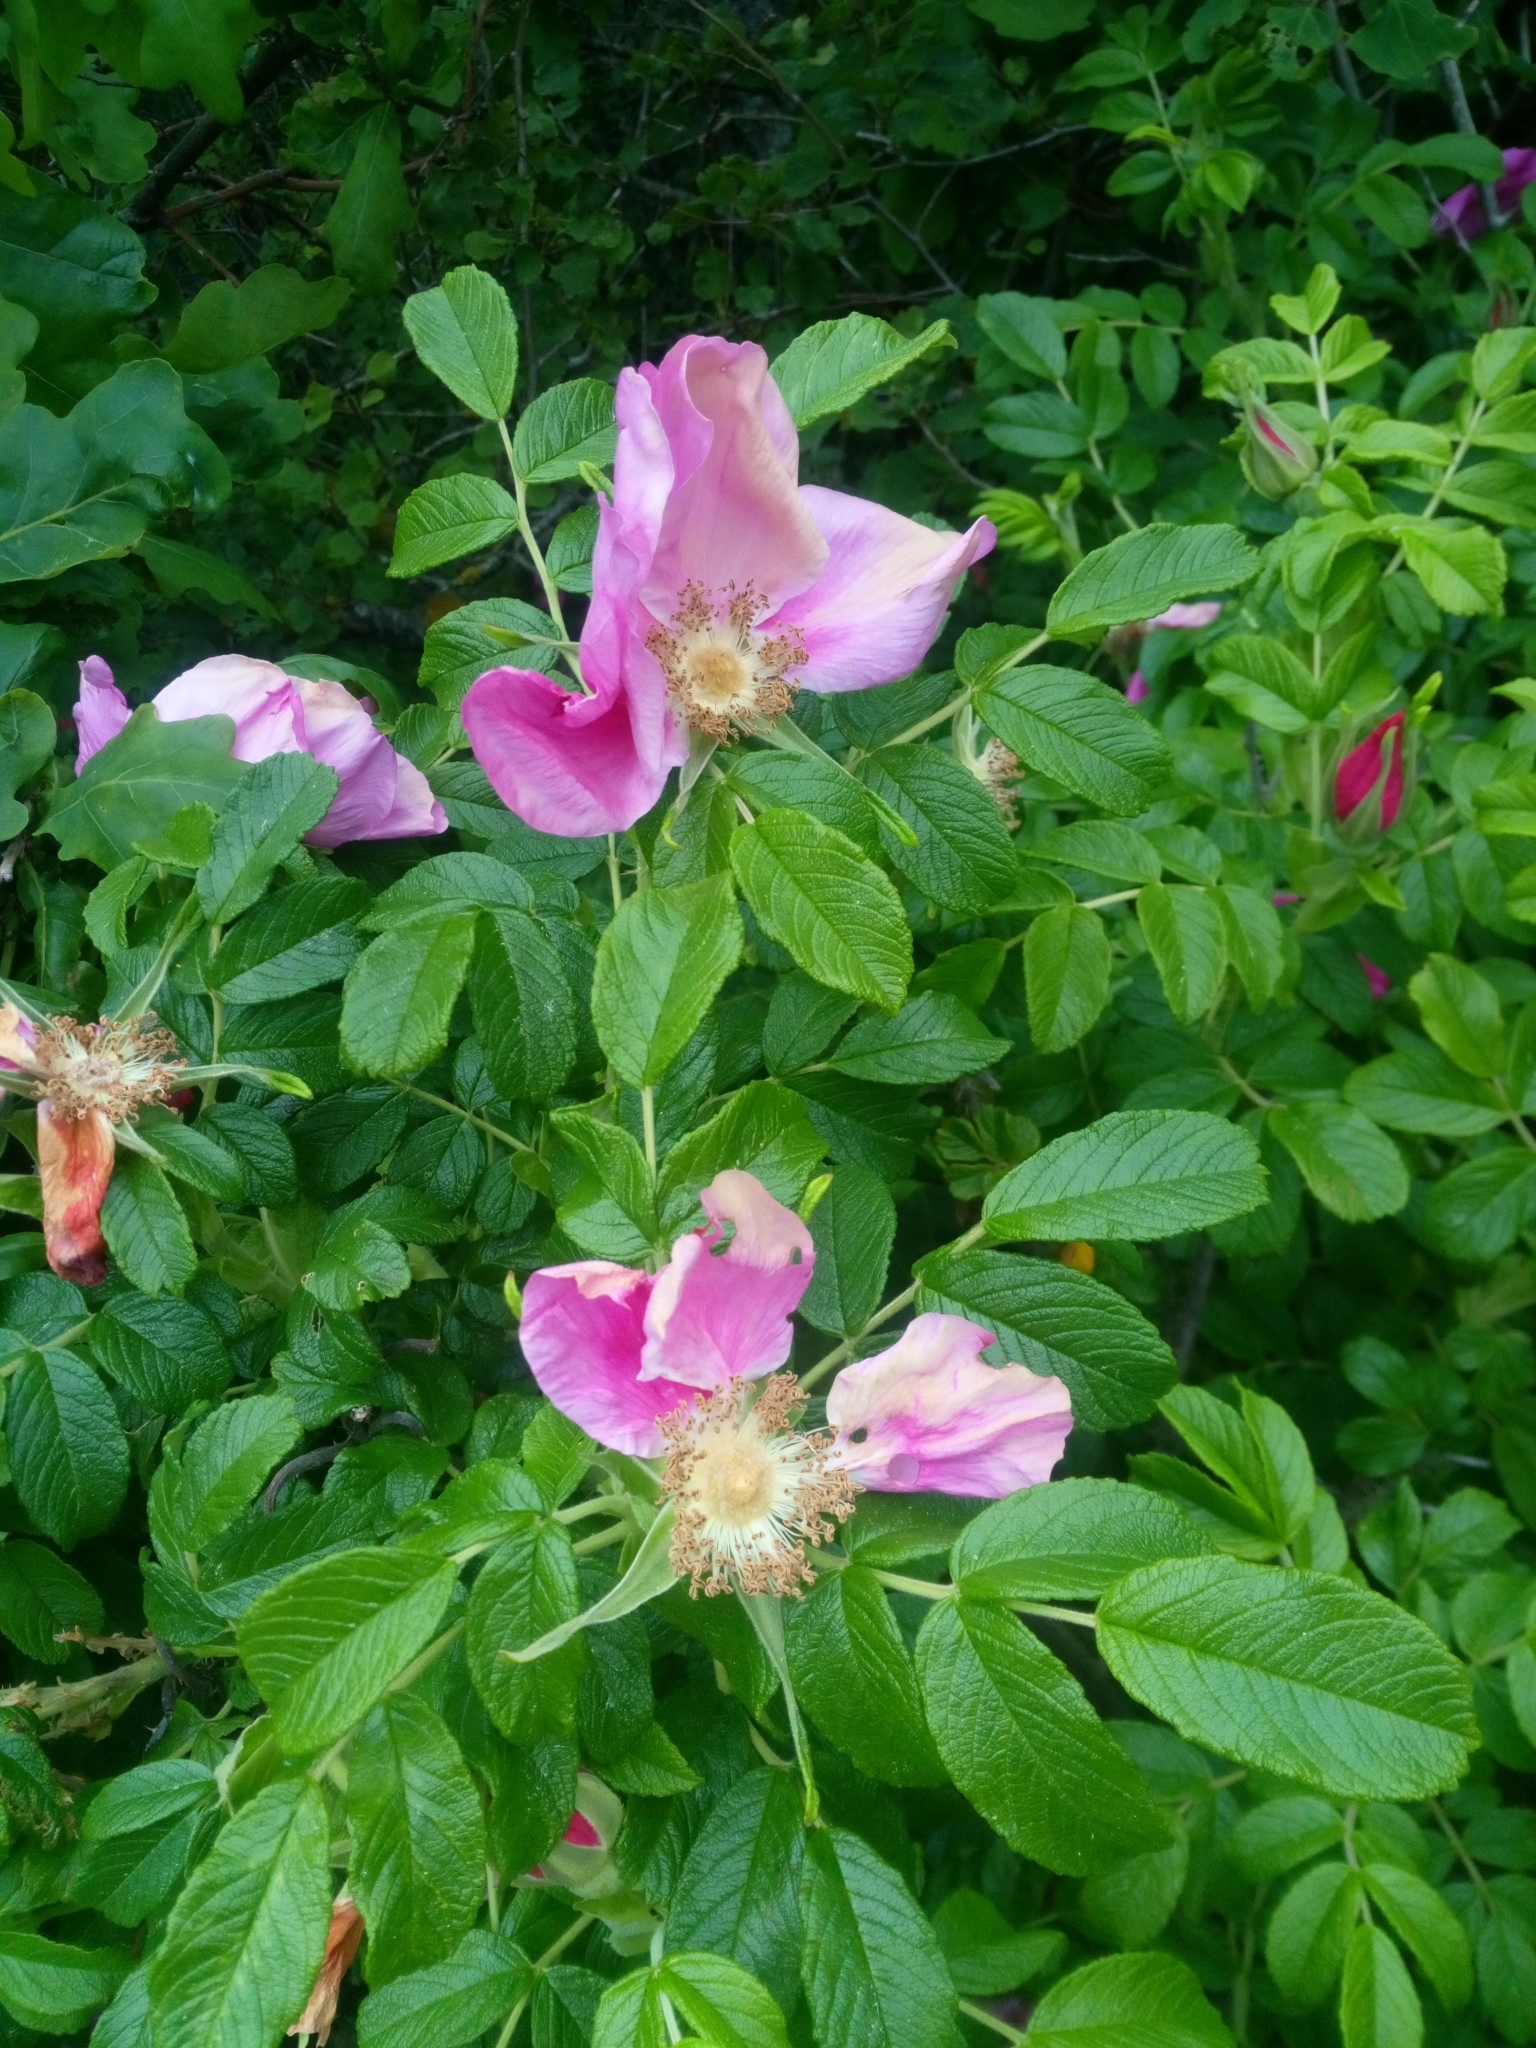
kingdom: Plantae
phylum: Tracheophyta
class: Magnoliopsida
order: Rosales
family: Rosaceae
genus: Rosa
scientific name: Rosa rugosa
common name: Japanese rose
